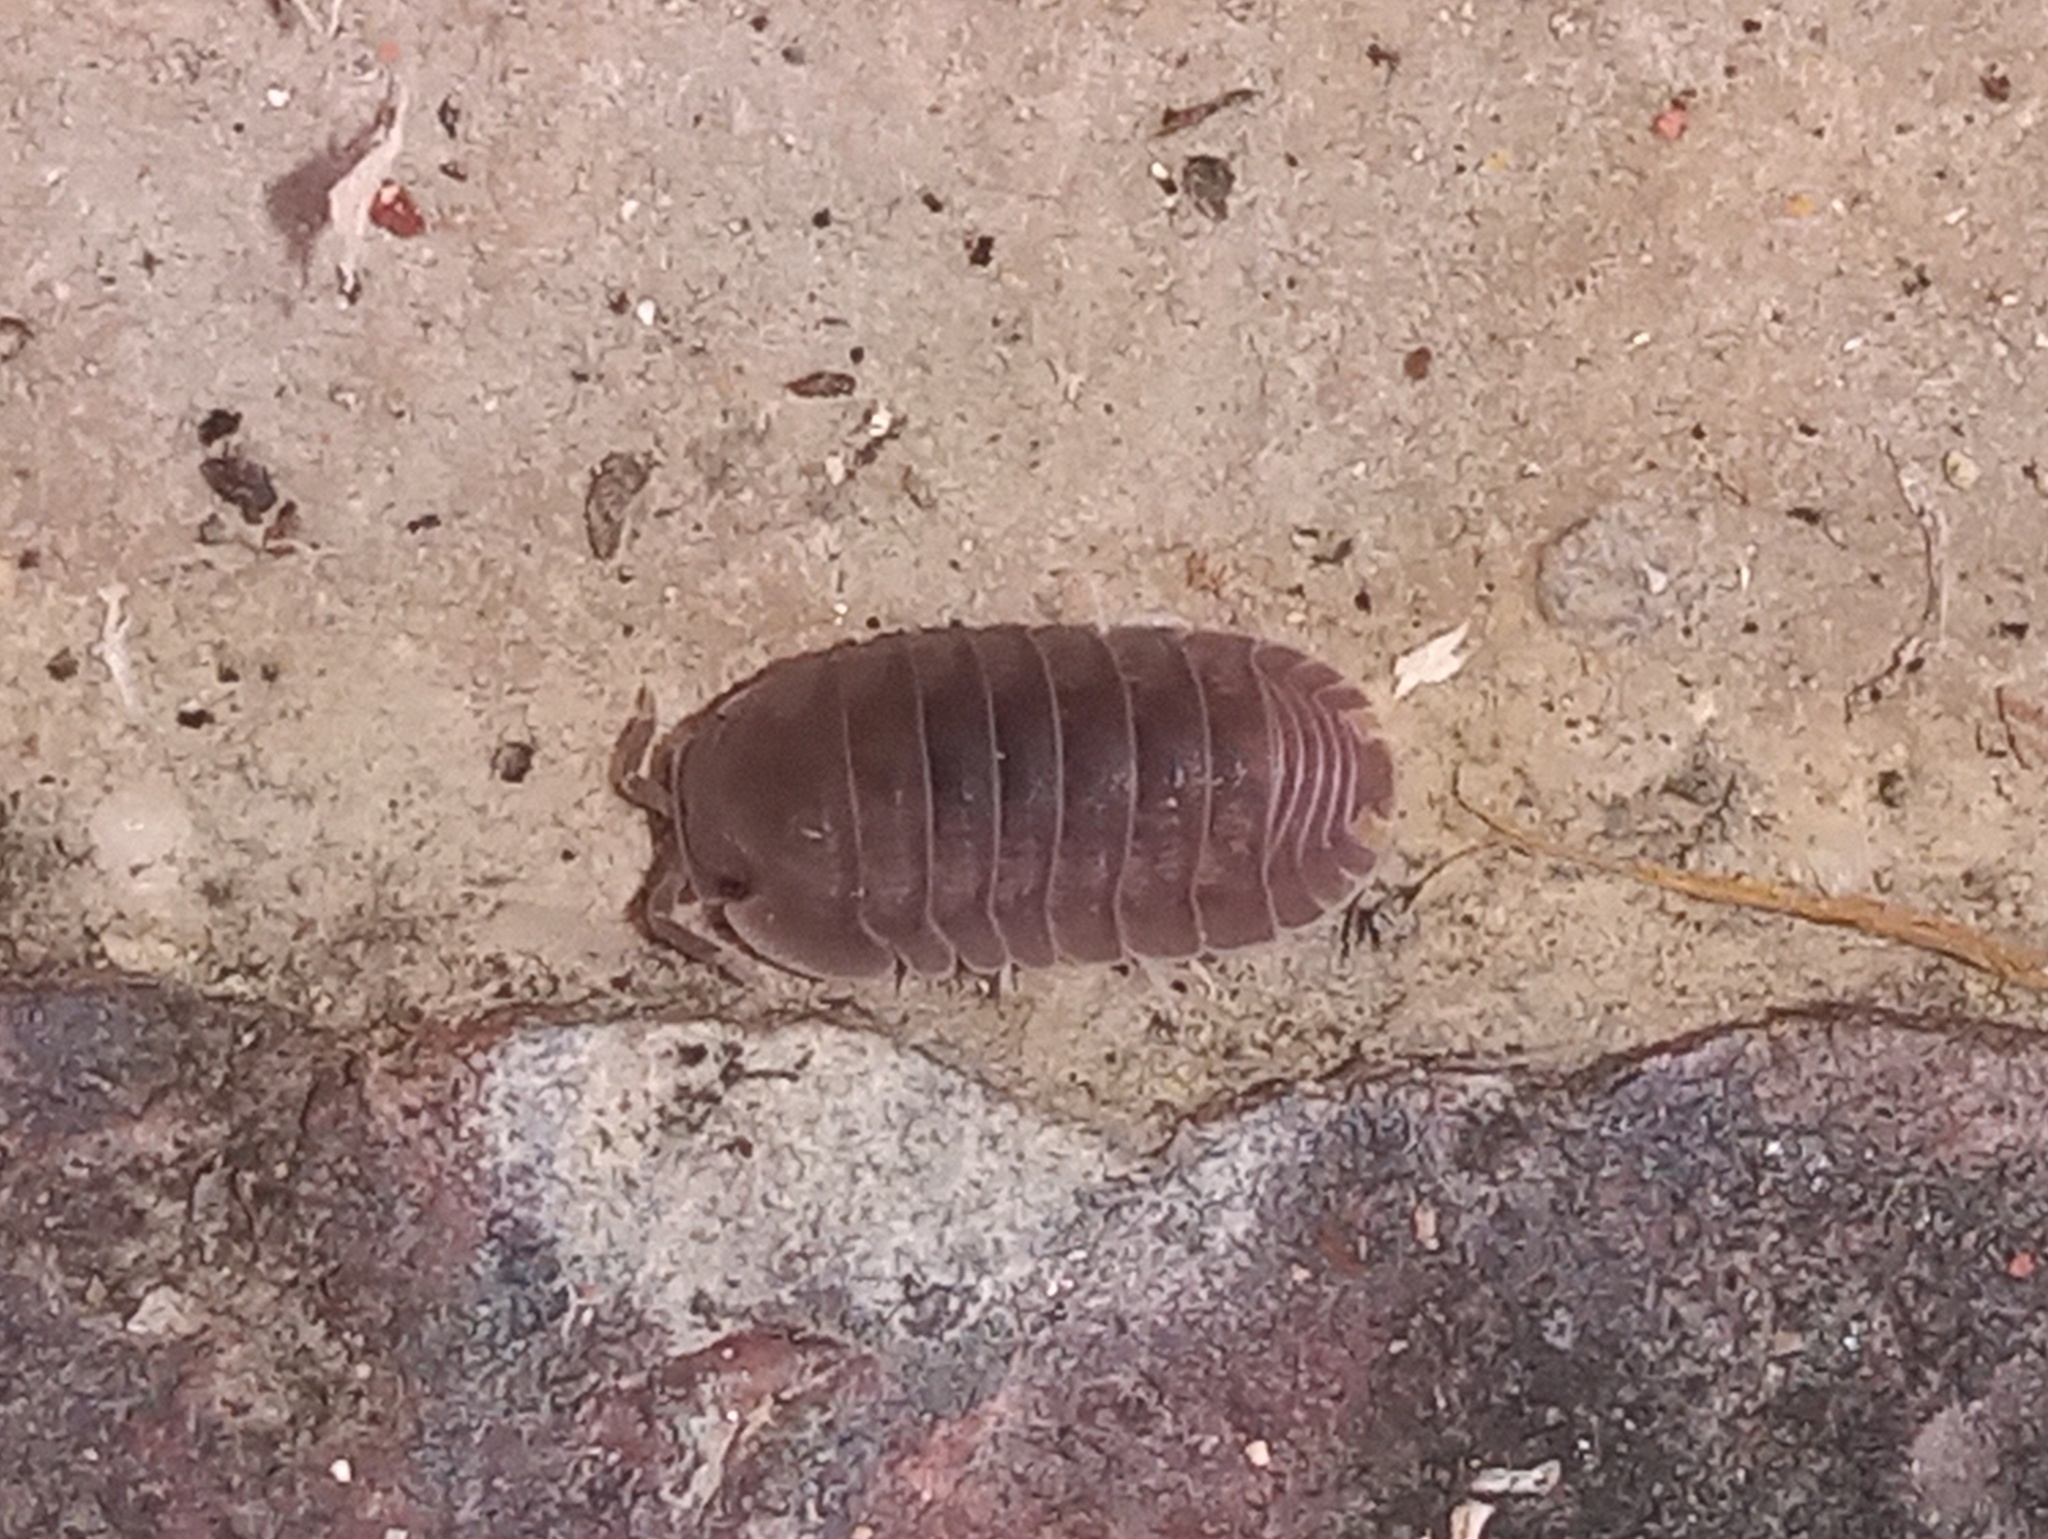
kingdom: Animalia
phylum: Arthropoda
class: Malacostraca
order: Isopoda
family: Armadillidae
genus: Cubaris
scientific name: Cubaris murina
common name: Pillbug
